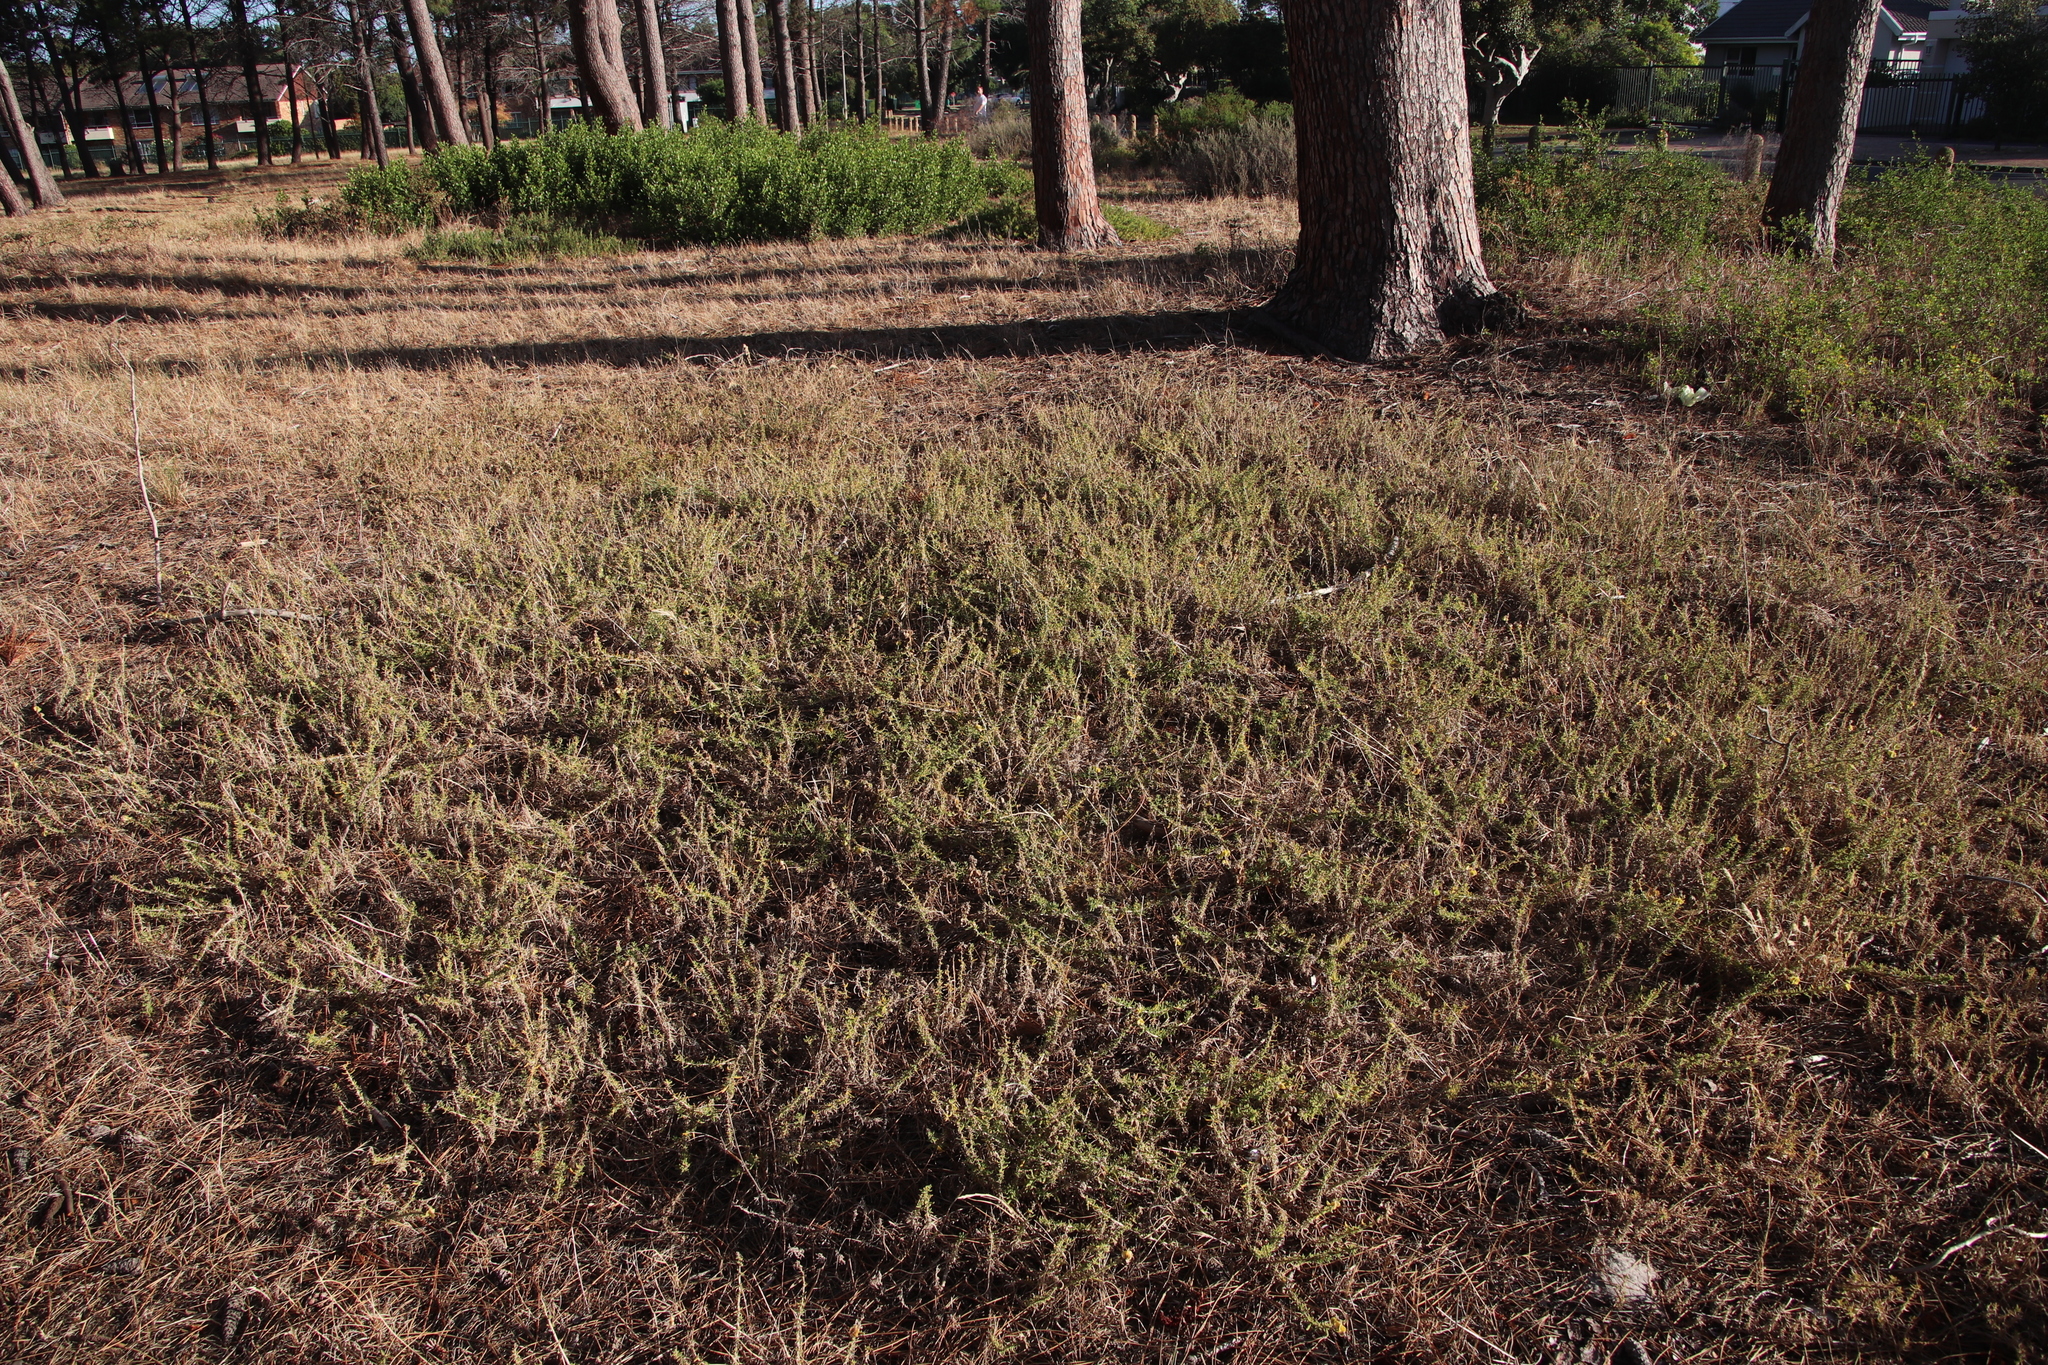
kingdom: Plantae
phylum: Tracheophyta
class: Magnoliopsida
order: Caryophyllales
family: Aizoaceae
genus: Tetragonia
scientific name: Tetragonia fruticosa
